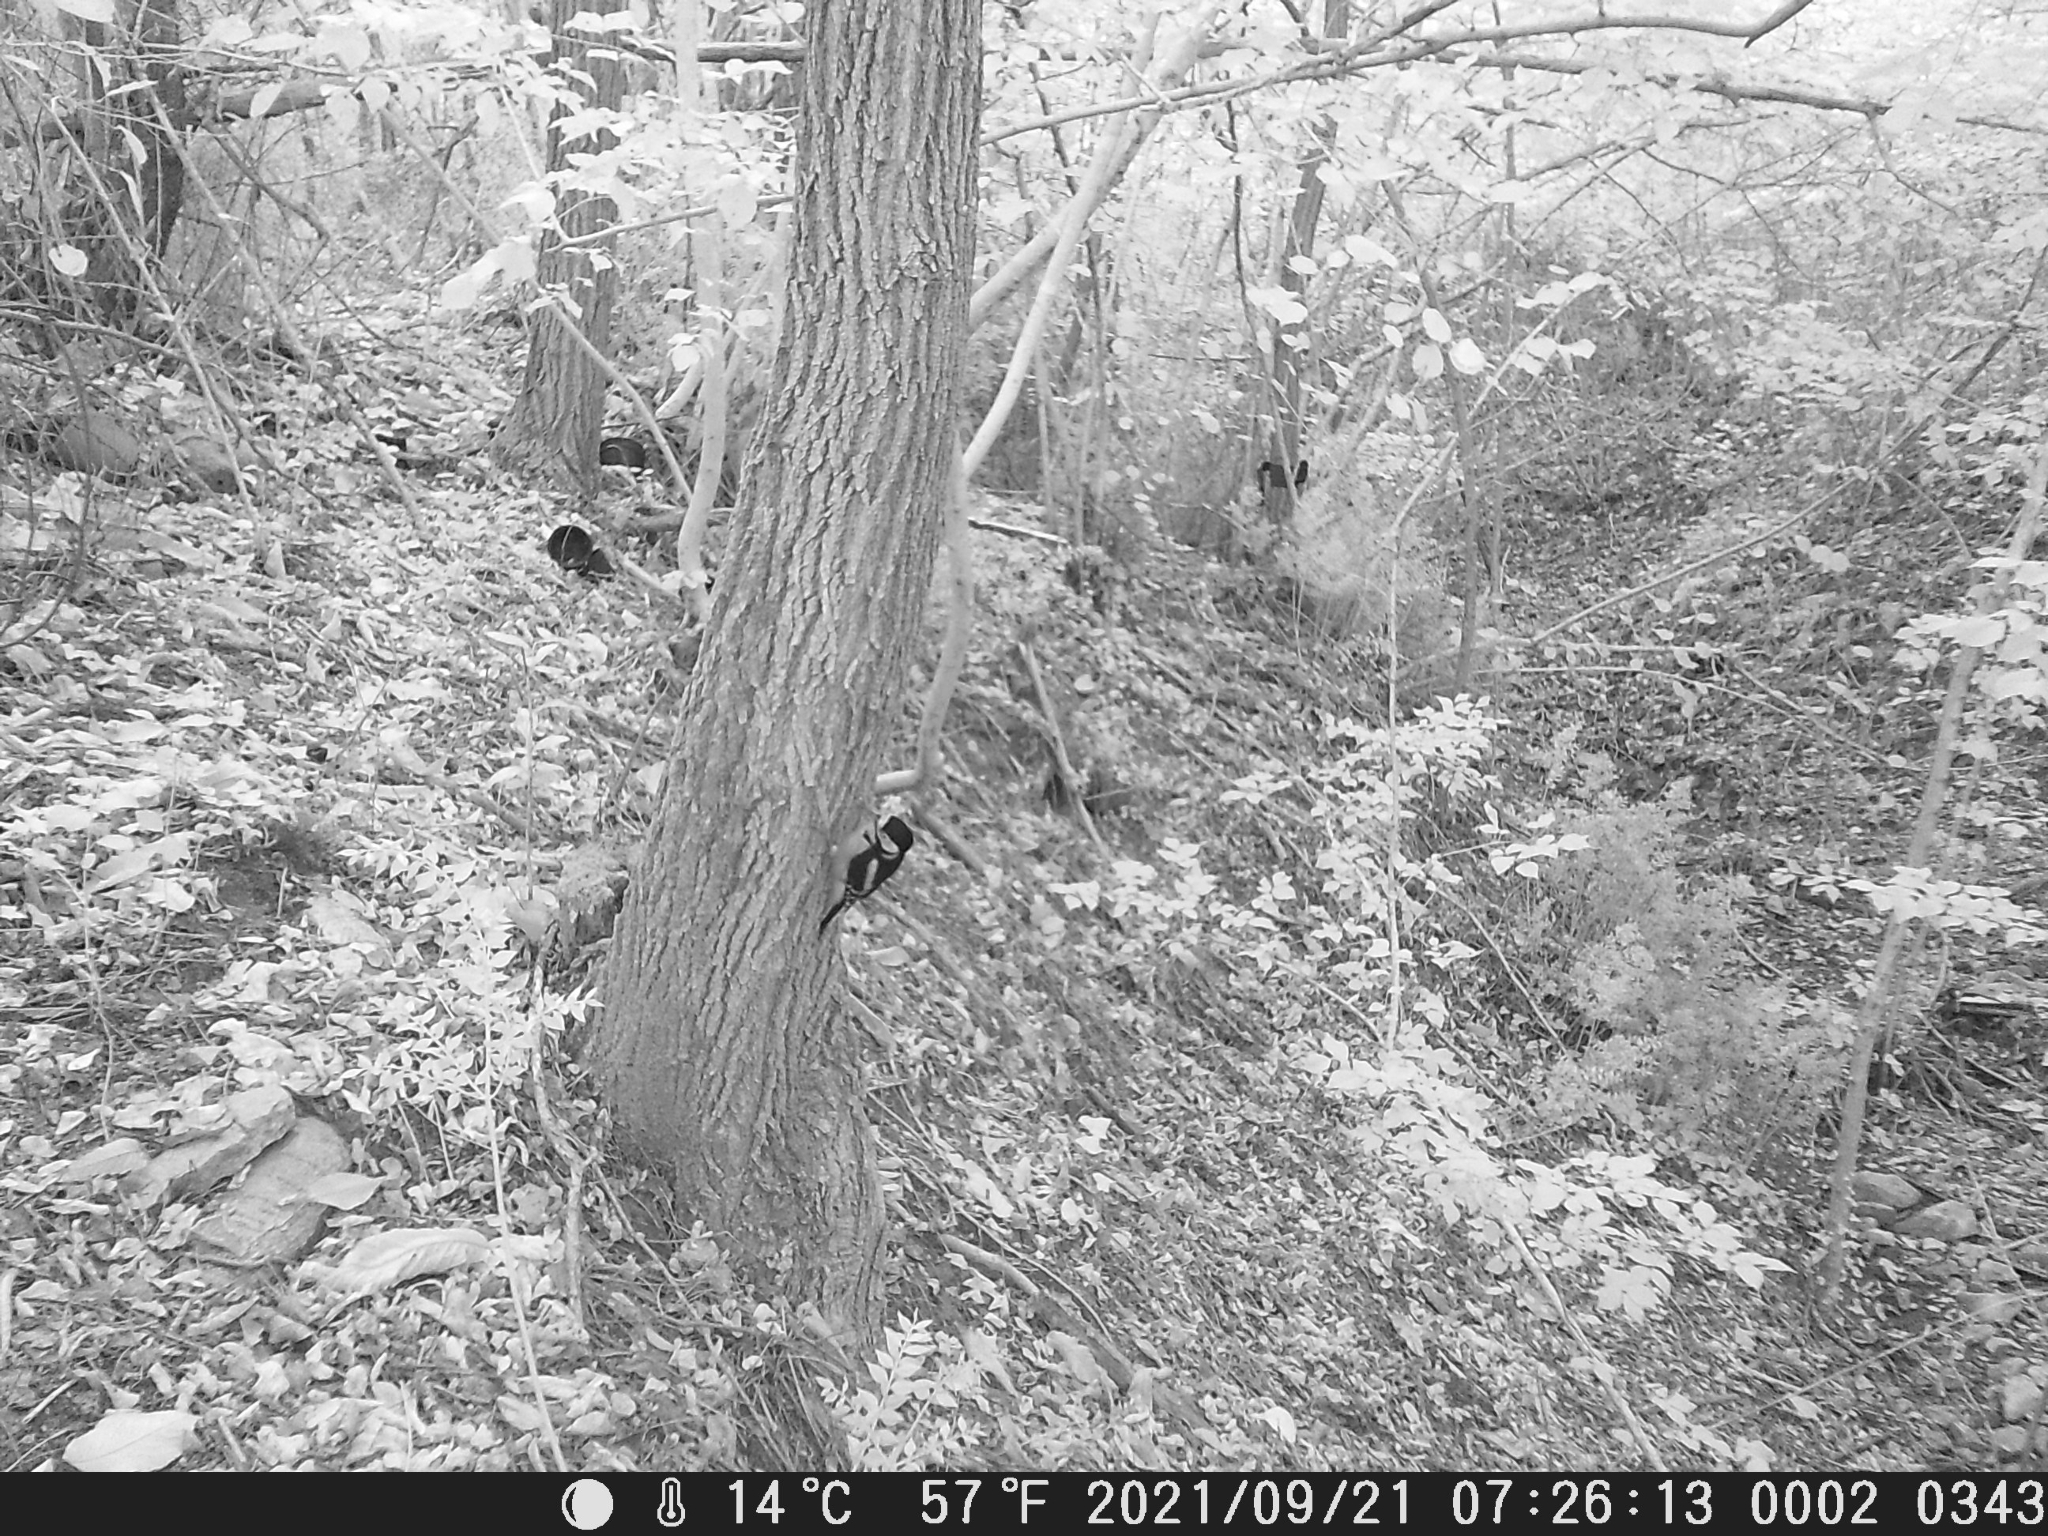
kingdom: Animalia
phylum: Chordata
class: Aves
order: Piciformes
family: Picidae
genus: Dendrocopos
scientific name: Dendrocopos major
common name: Great spotted woodpecker
